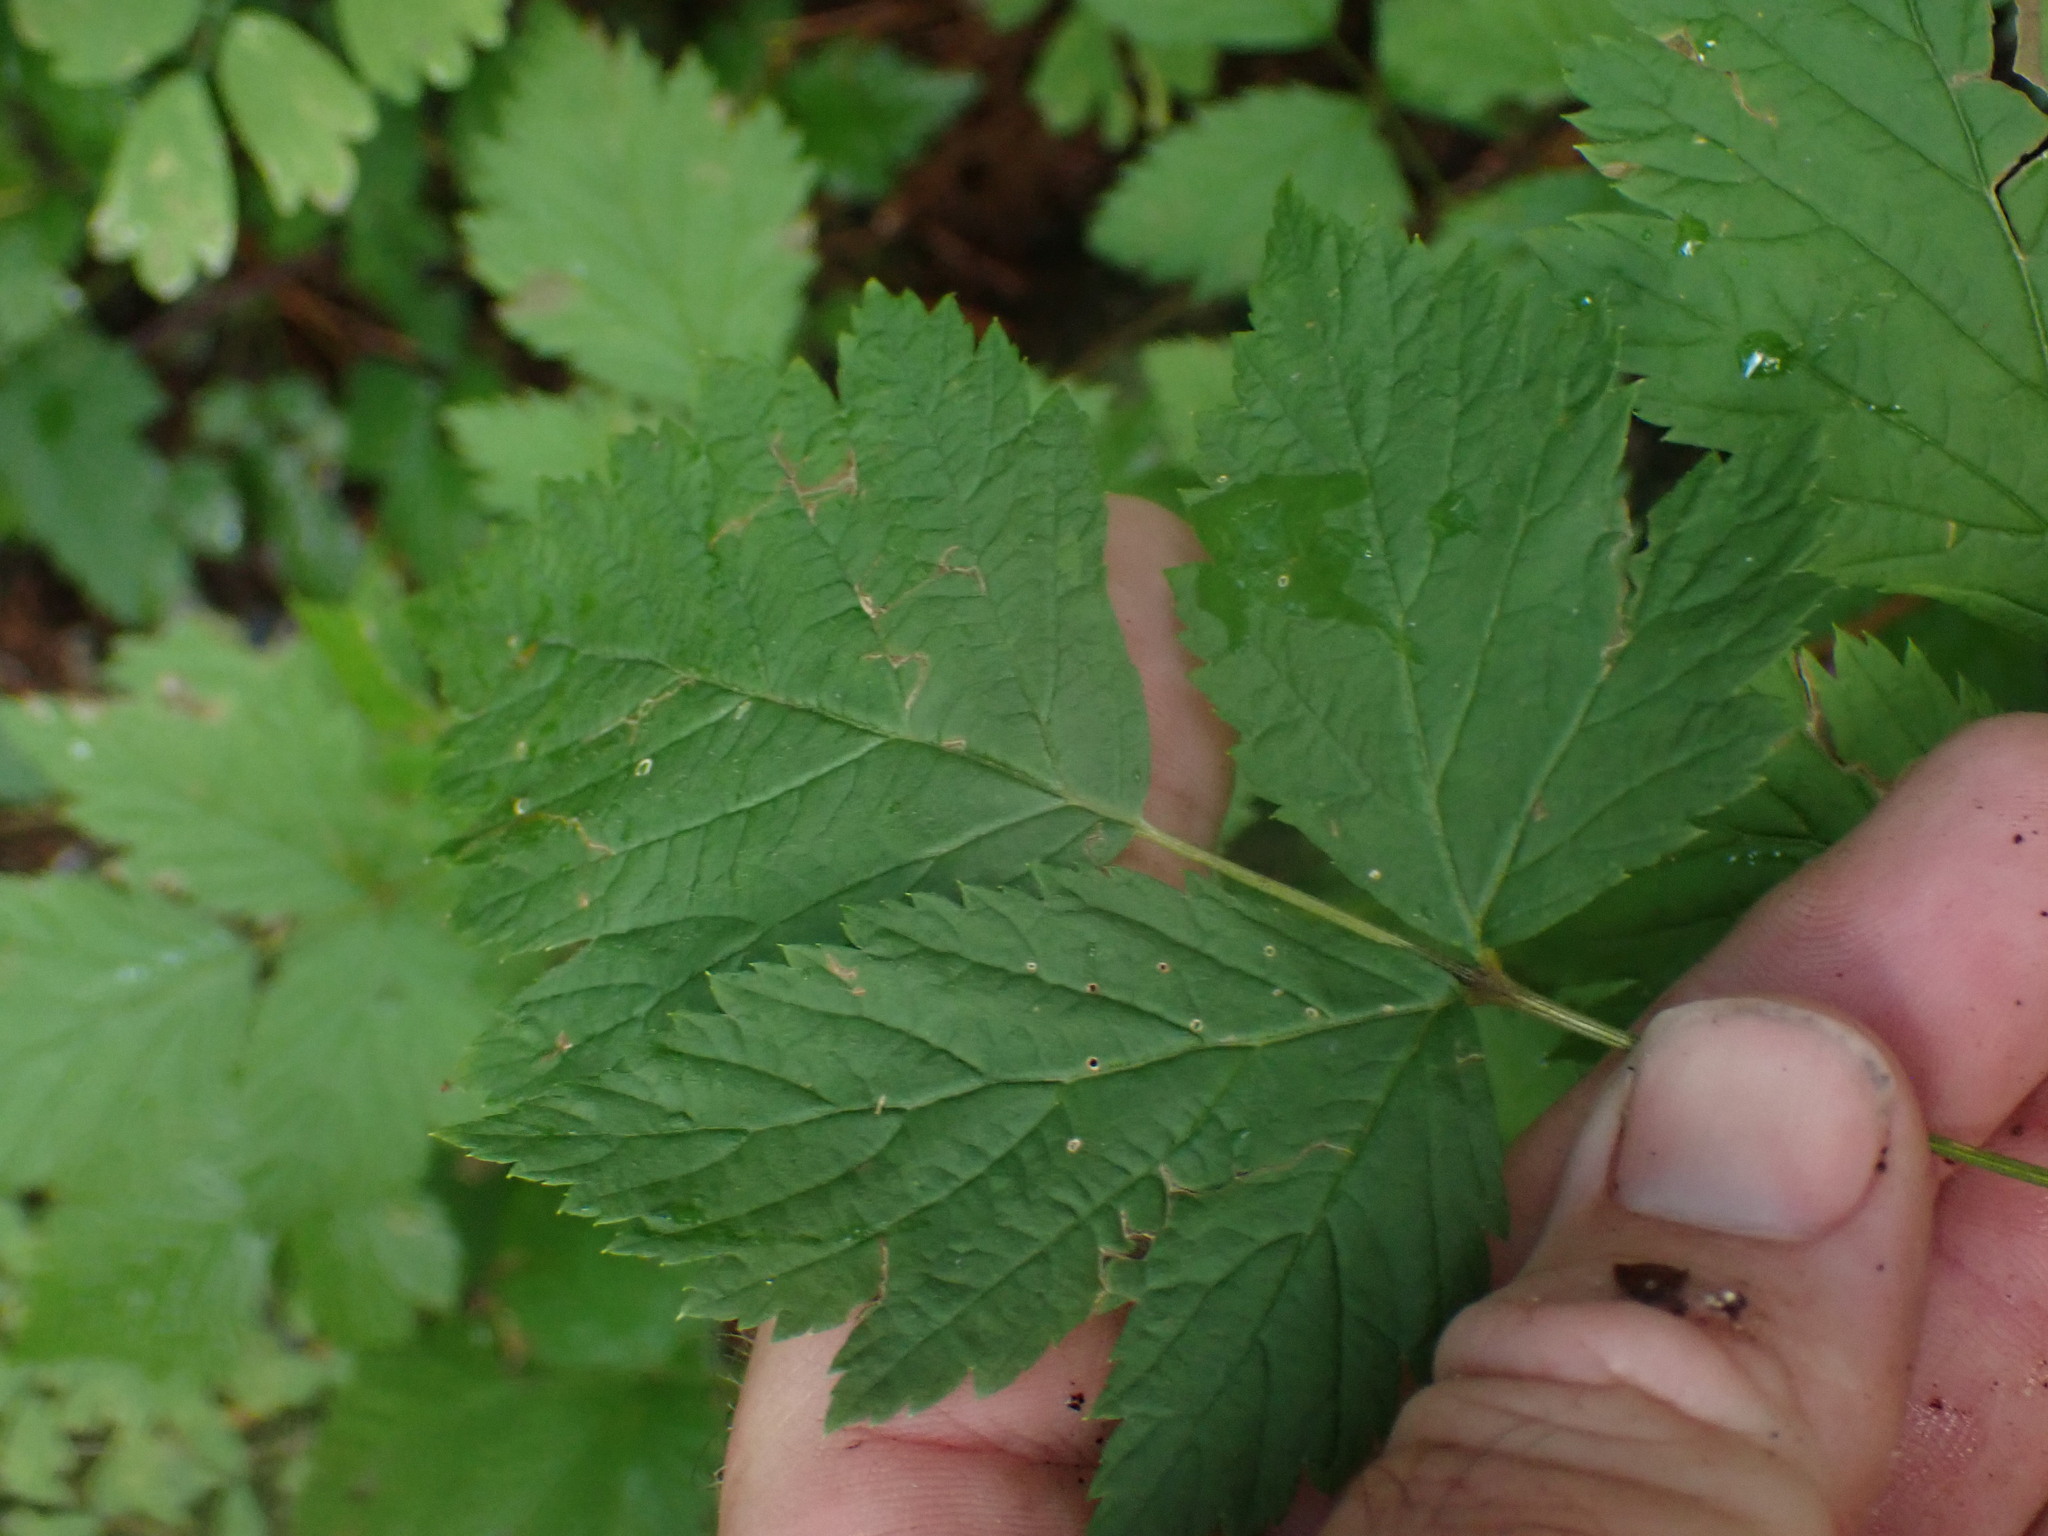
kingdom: Plantae
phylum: Tracheophyta
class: Magnoliopsida
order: Rosales
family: Rosaceae
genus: Rubus
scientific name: Rubus spectabilis
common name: Salmonberry
